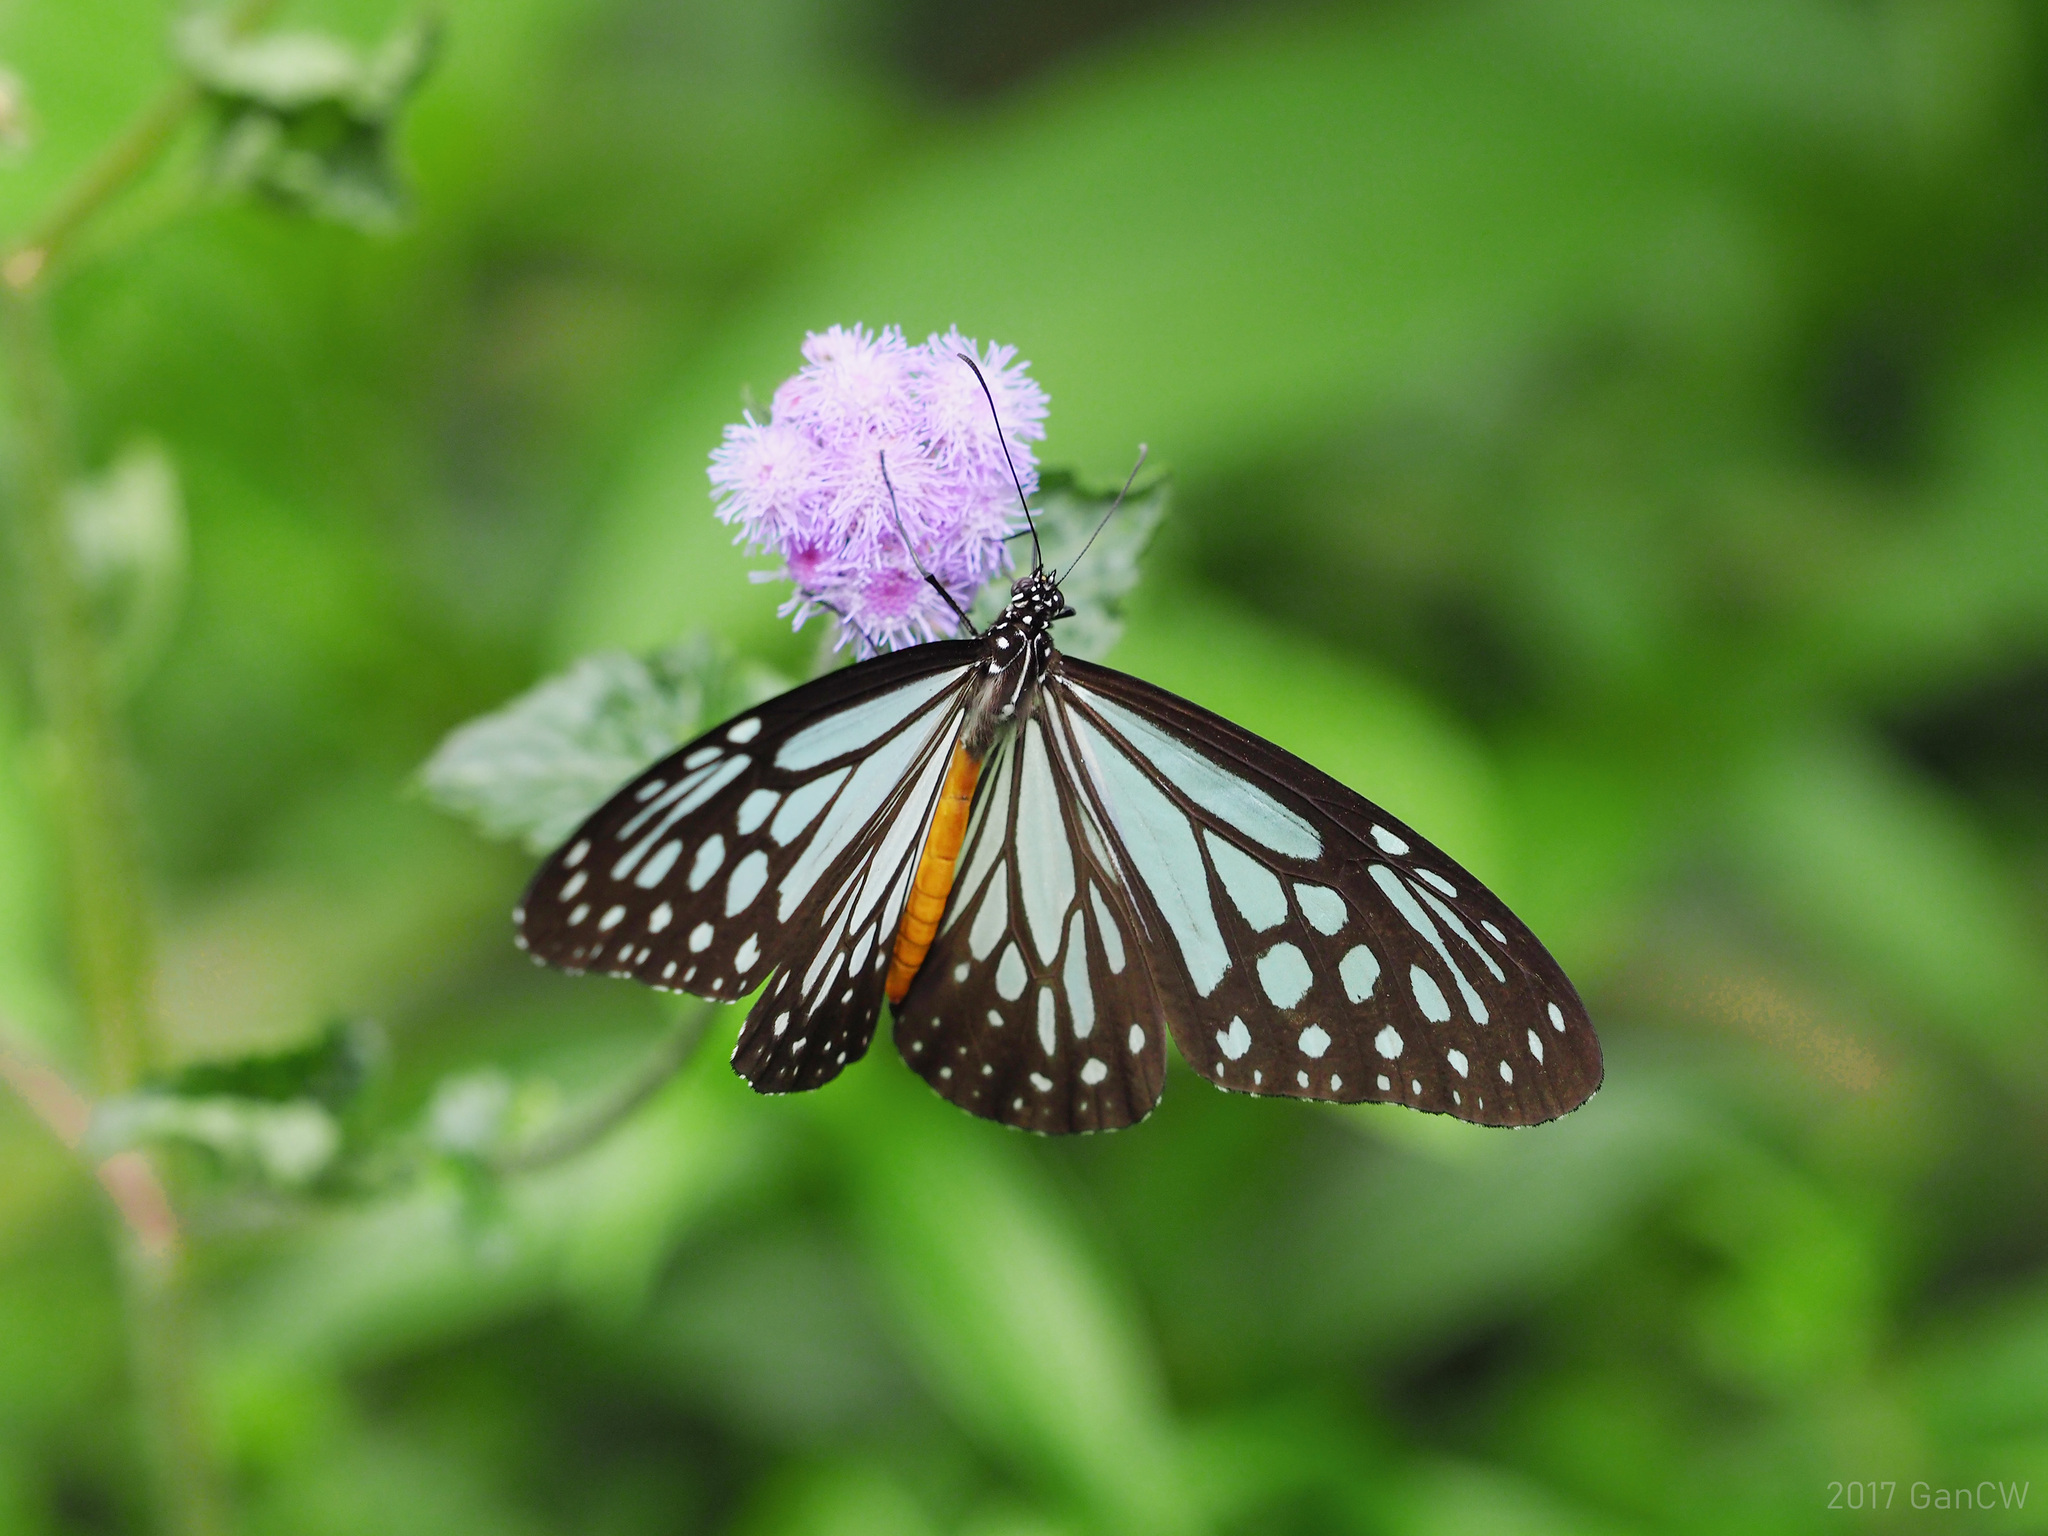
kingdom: Animalia
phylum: Arthropoda
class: Insecta
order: Lepidoptera
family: Nymphalidae
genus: Parantica
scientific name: Parantica melaneus
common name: Chocolate tiger
